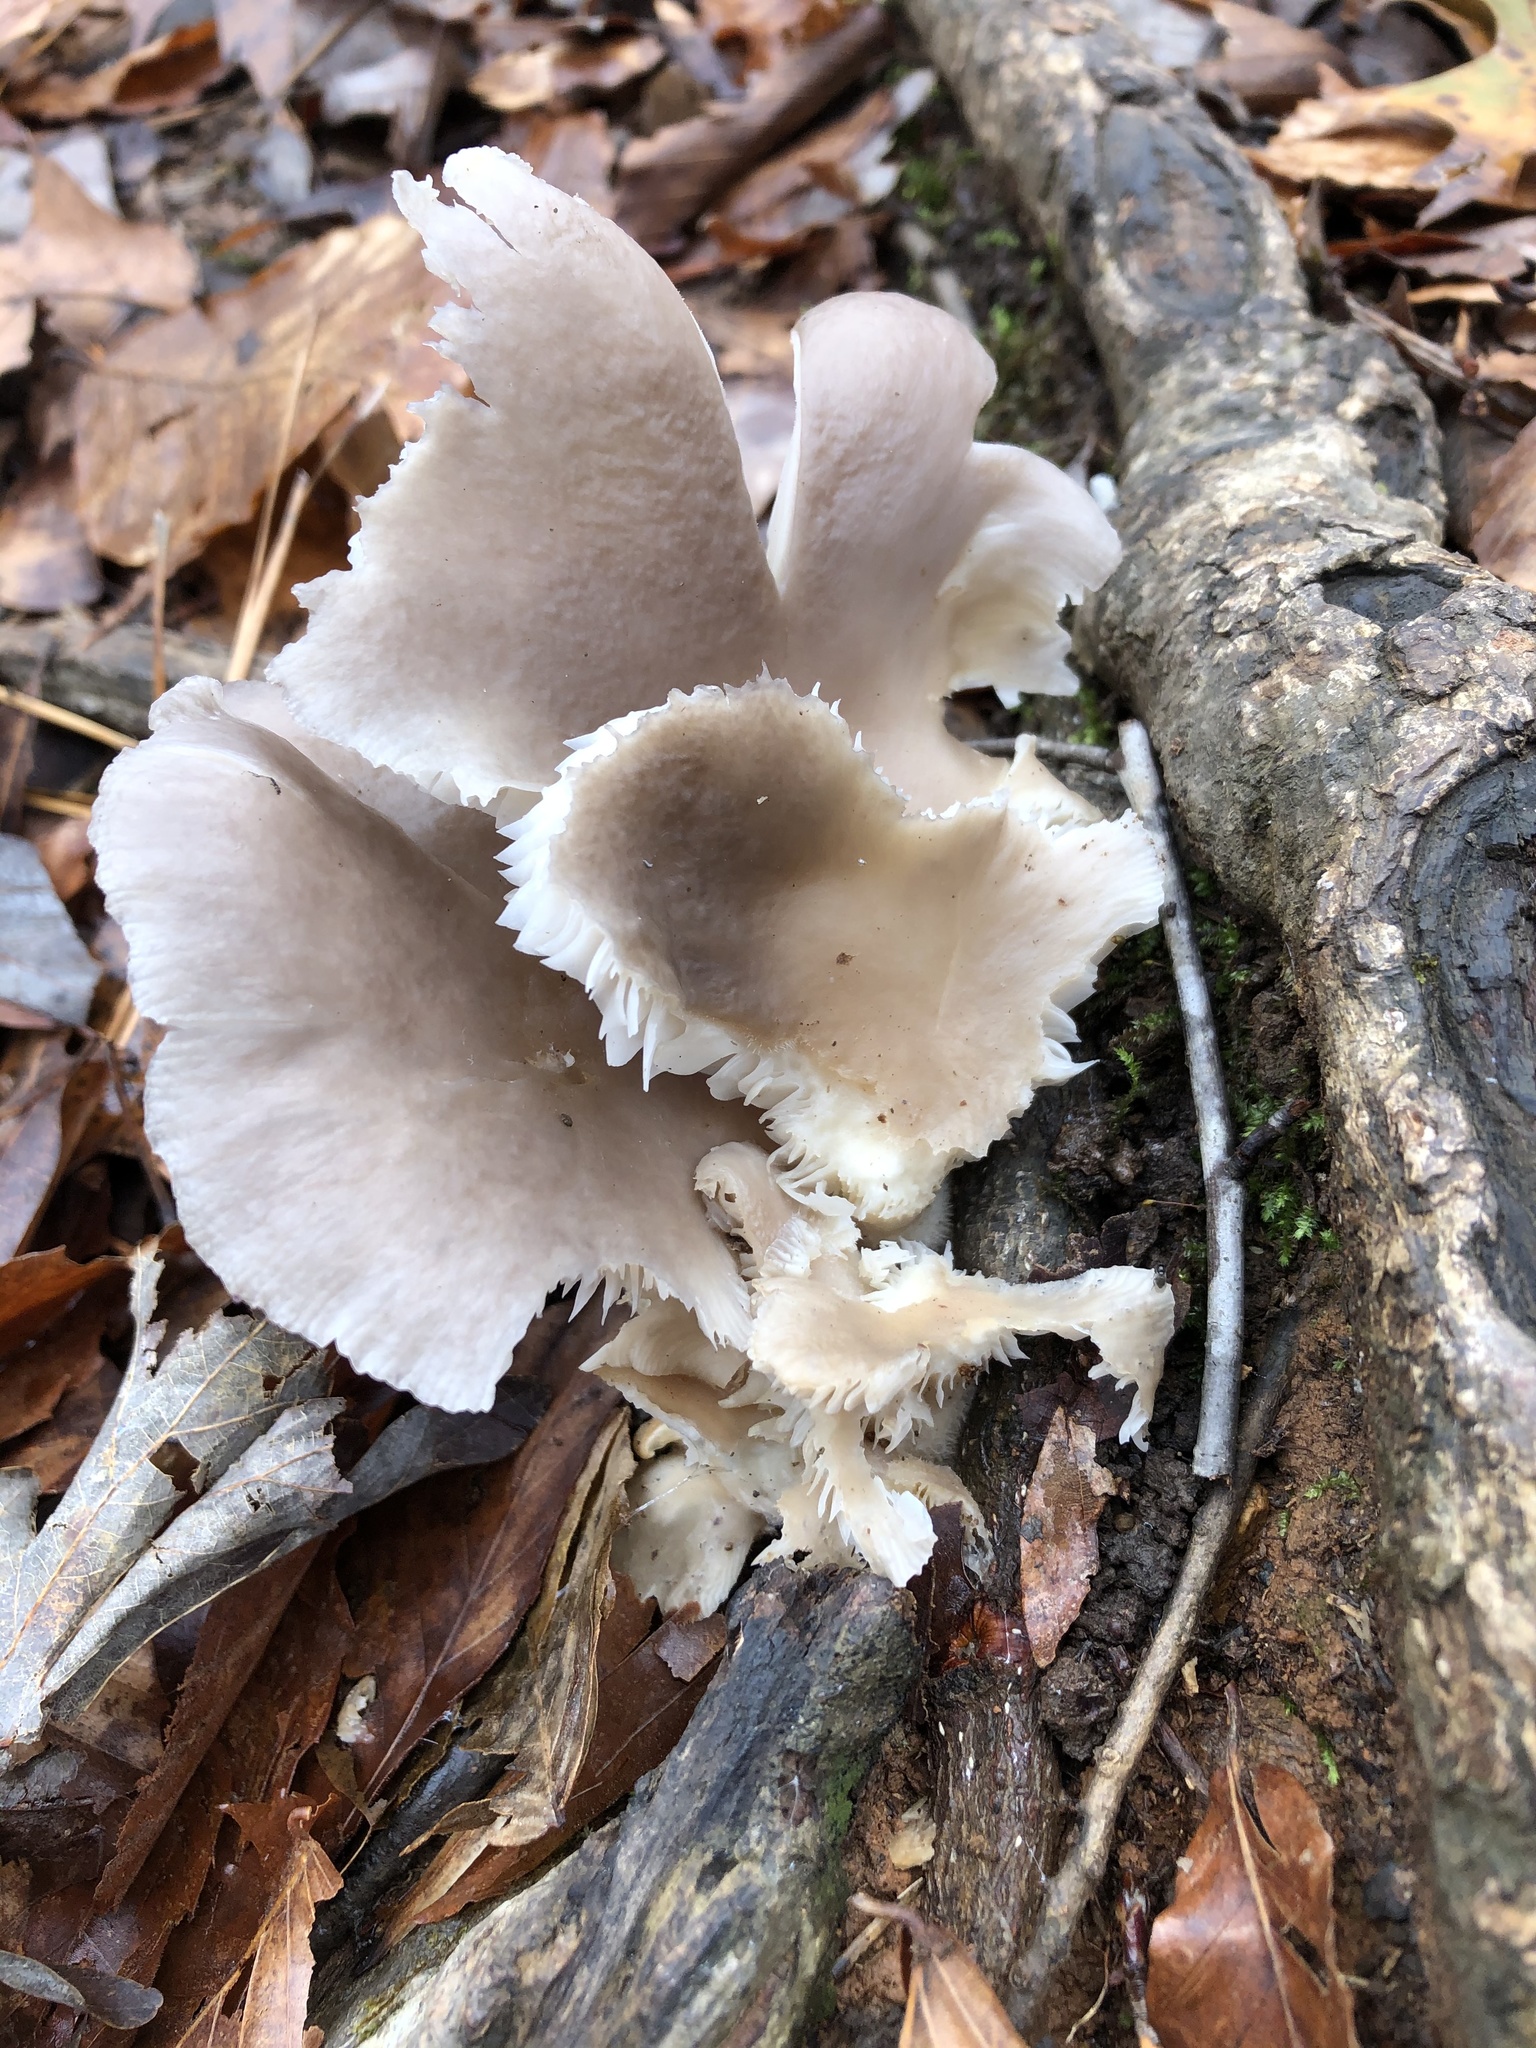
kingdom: Fungi
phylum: Basidiomycota
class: Agaricomycetes
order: Agaricales
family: Pleurotaceae
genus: Pleurotus
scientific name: Pleurotus ostreatus
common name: Oyster mushroom
